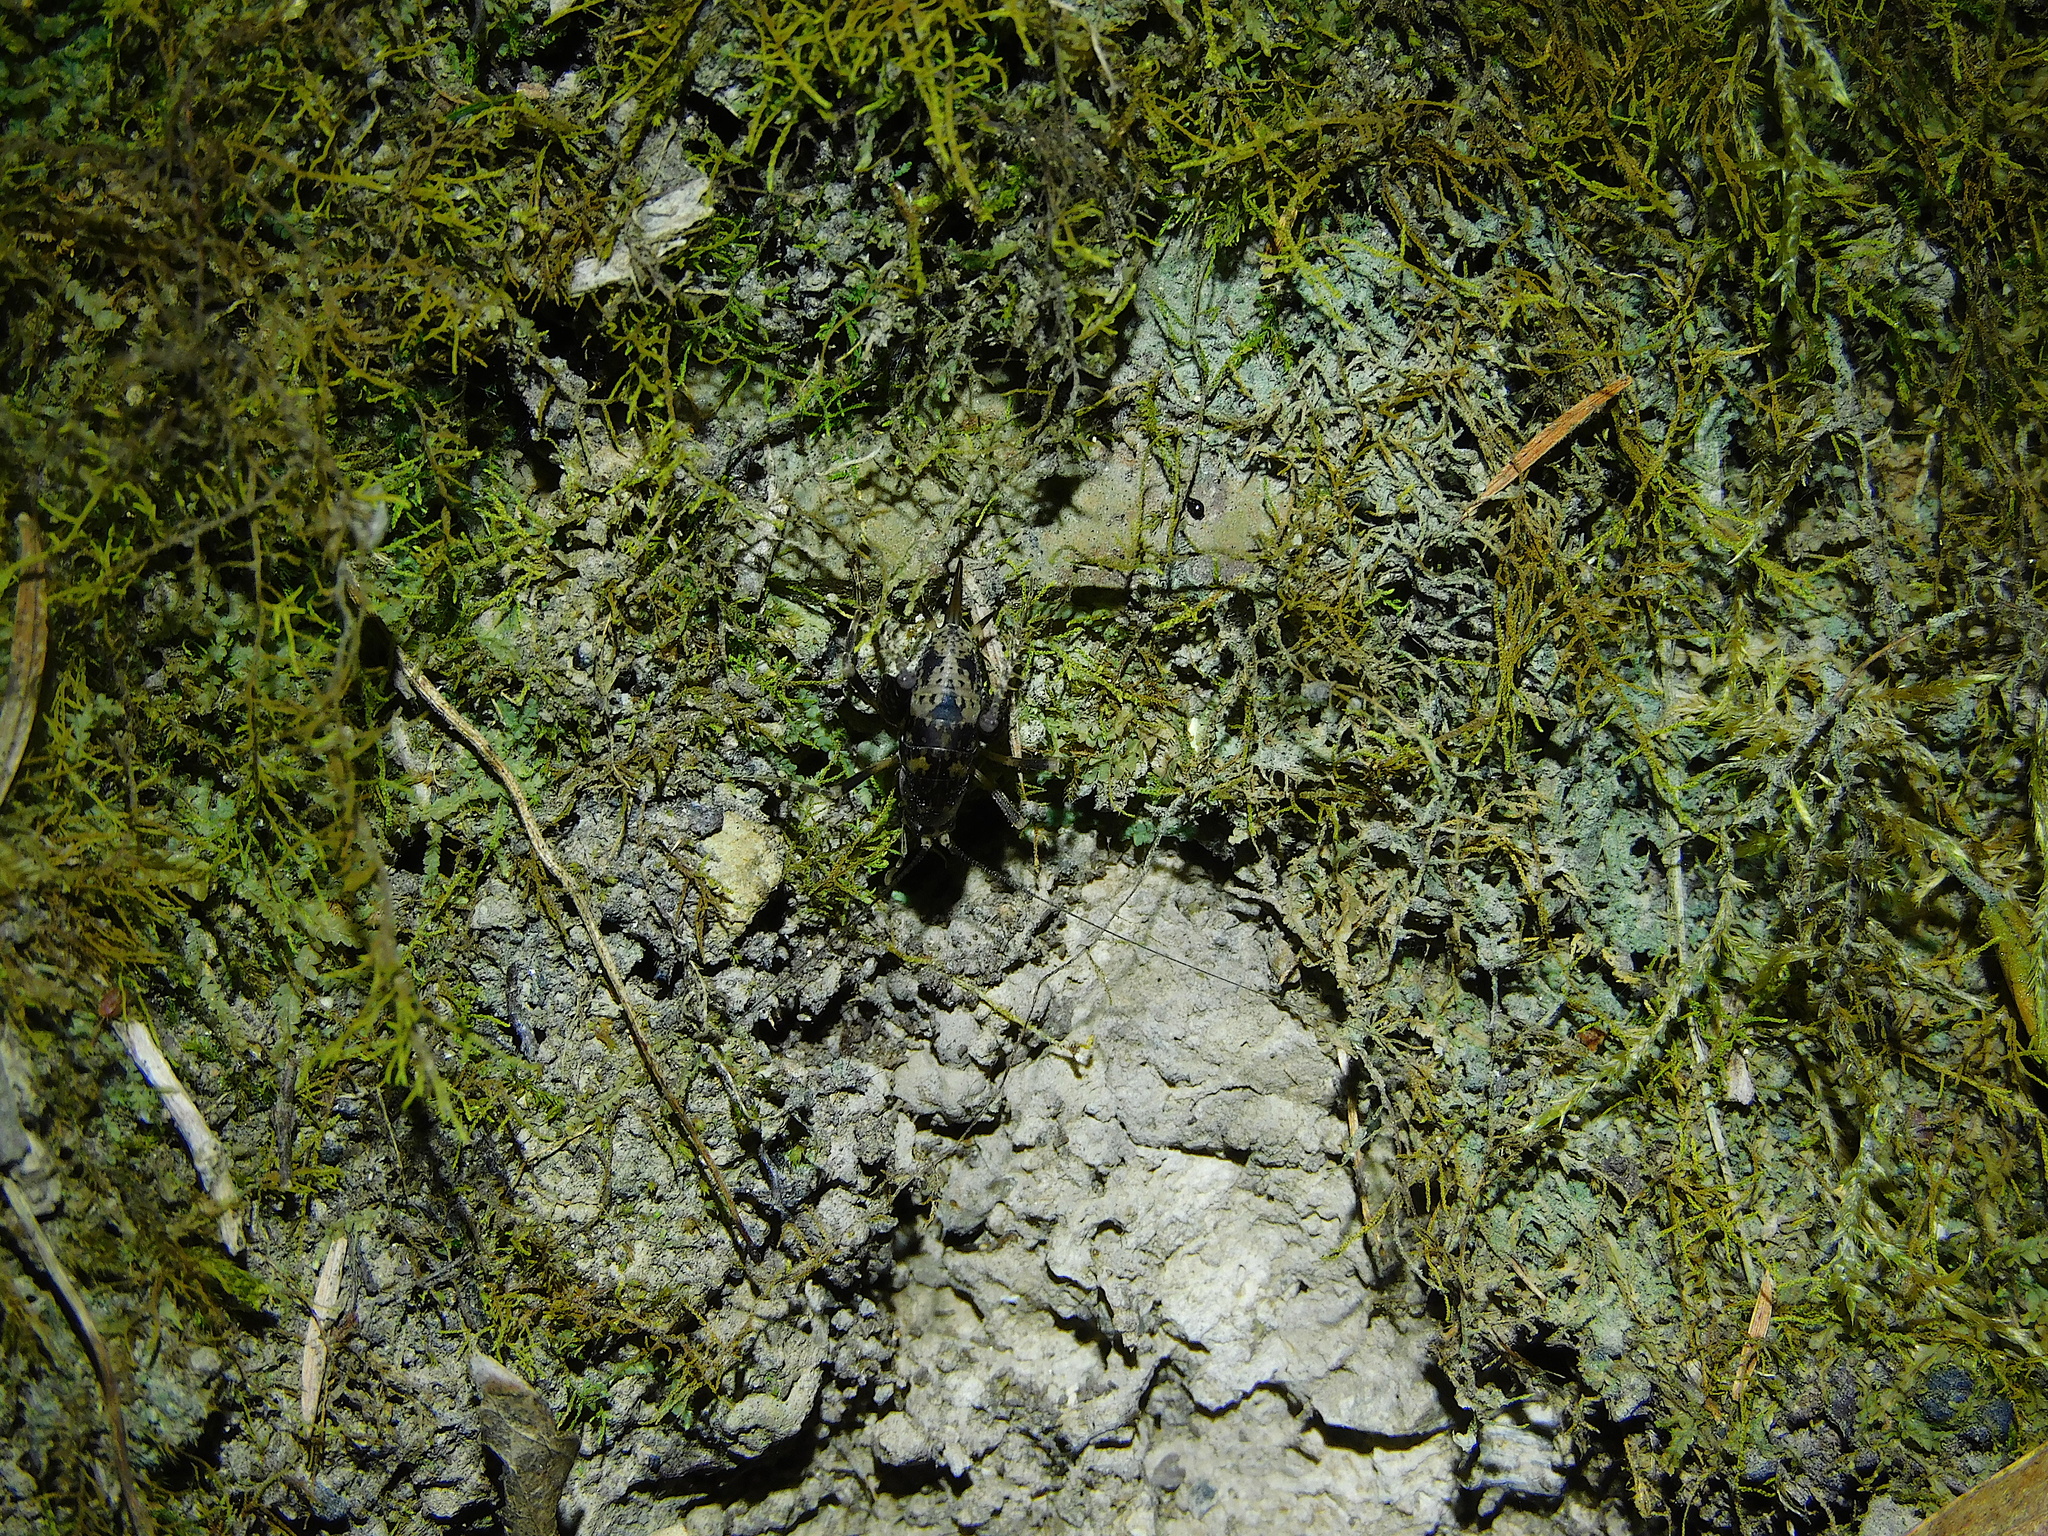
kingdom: Animalia
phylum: Arthropoda
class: Insecta
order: Orthoptera
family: Rhaphidophoridae
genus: Parvotettix
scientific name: Parvotettix domesticus
